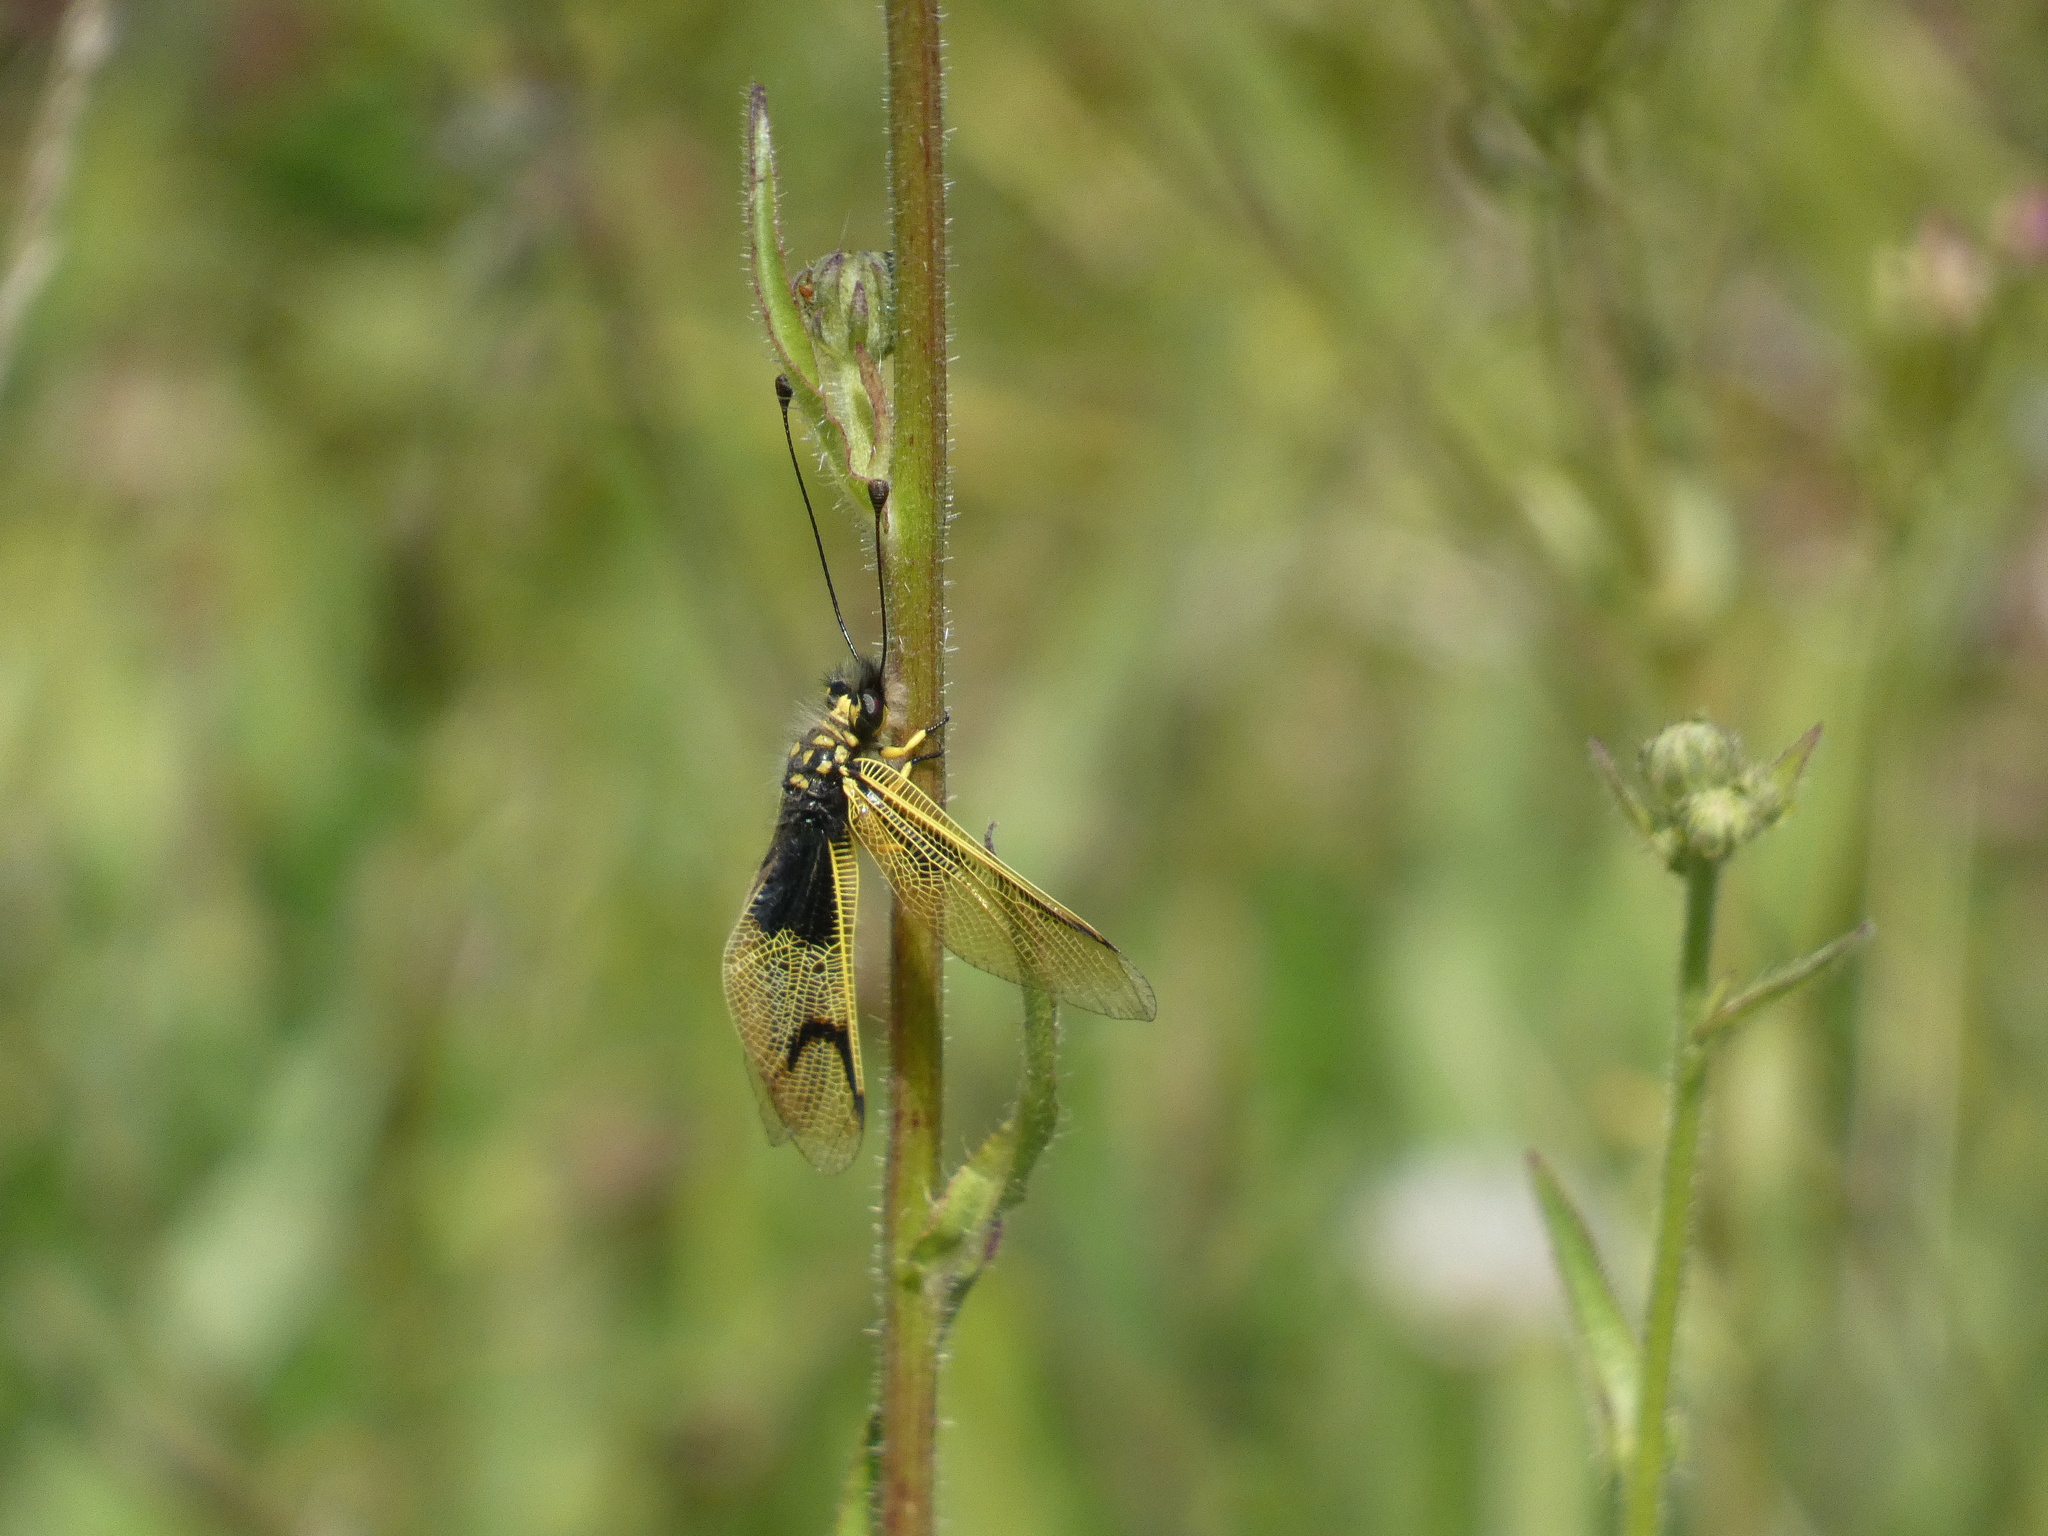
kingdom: Animalia
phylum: Arthropoda
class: Insecta
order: Neuroptera
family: Ascalaphidae
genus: Libelloides
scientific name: Libelloides longicornis
